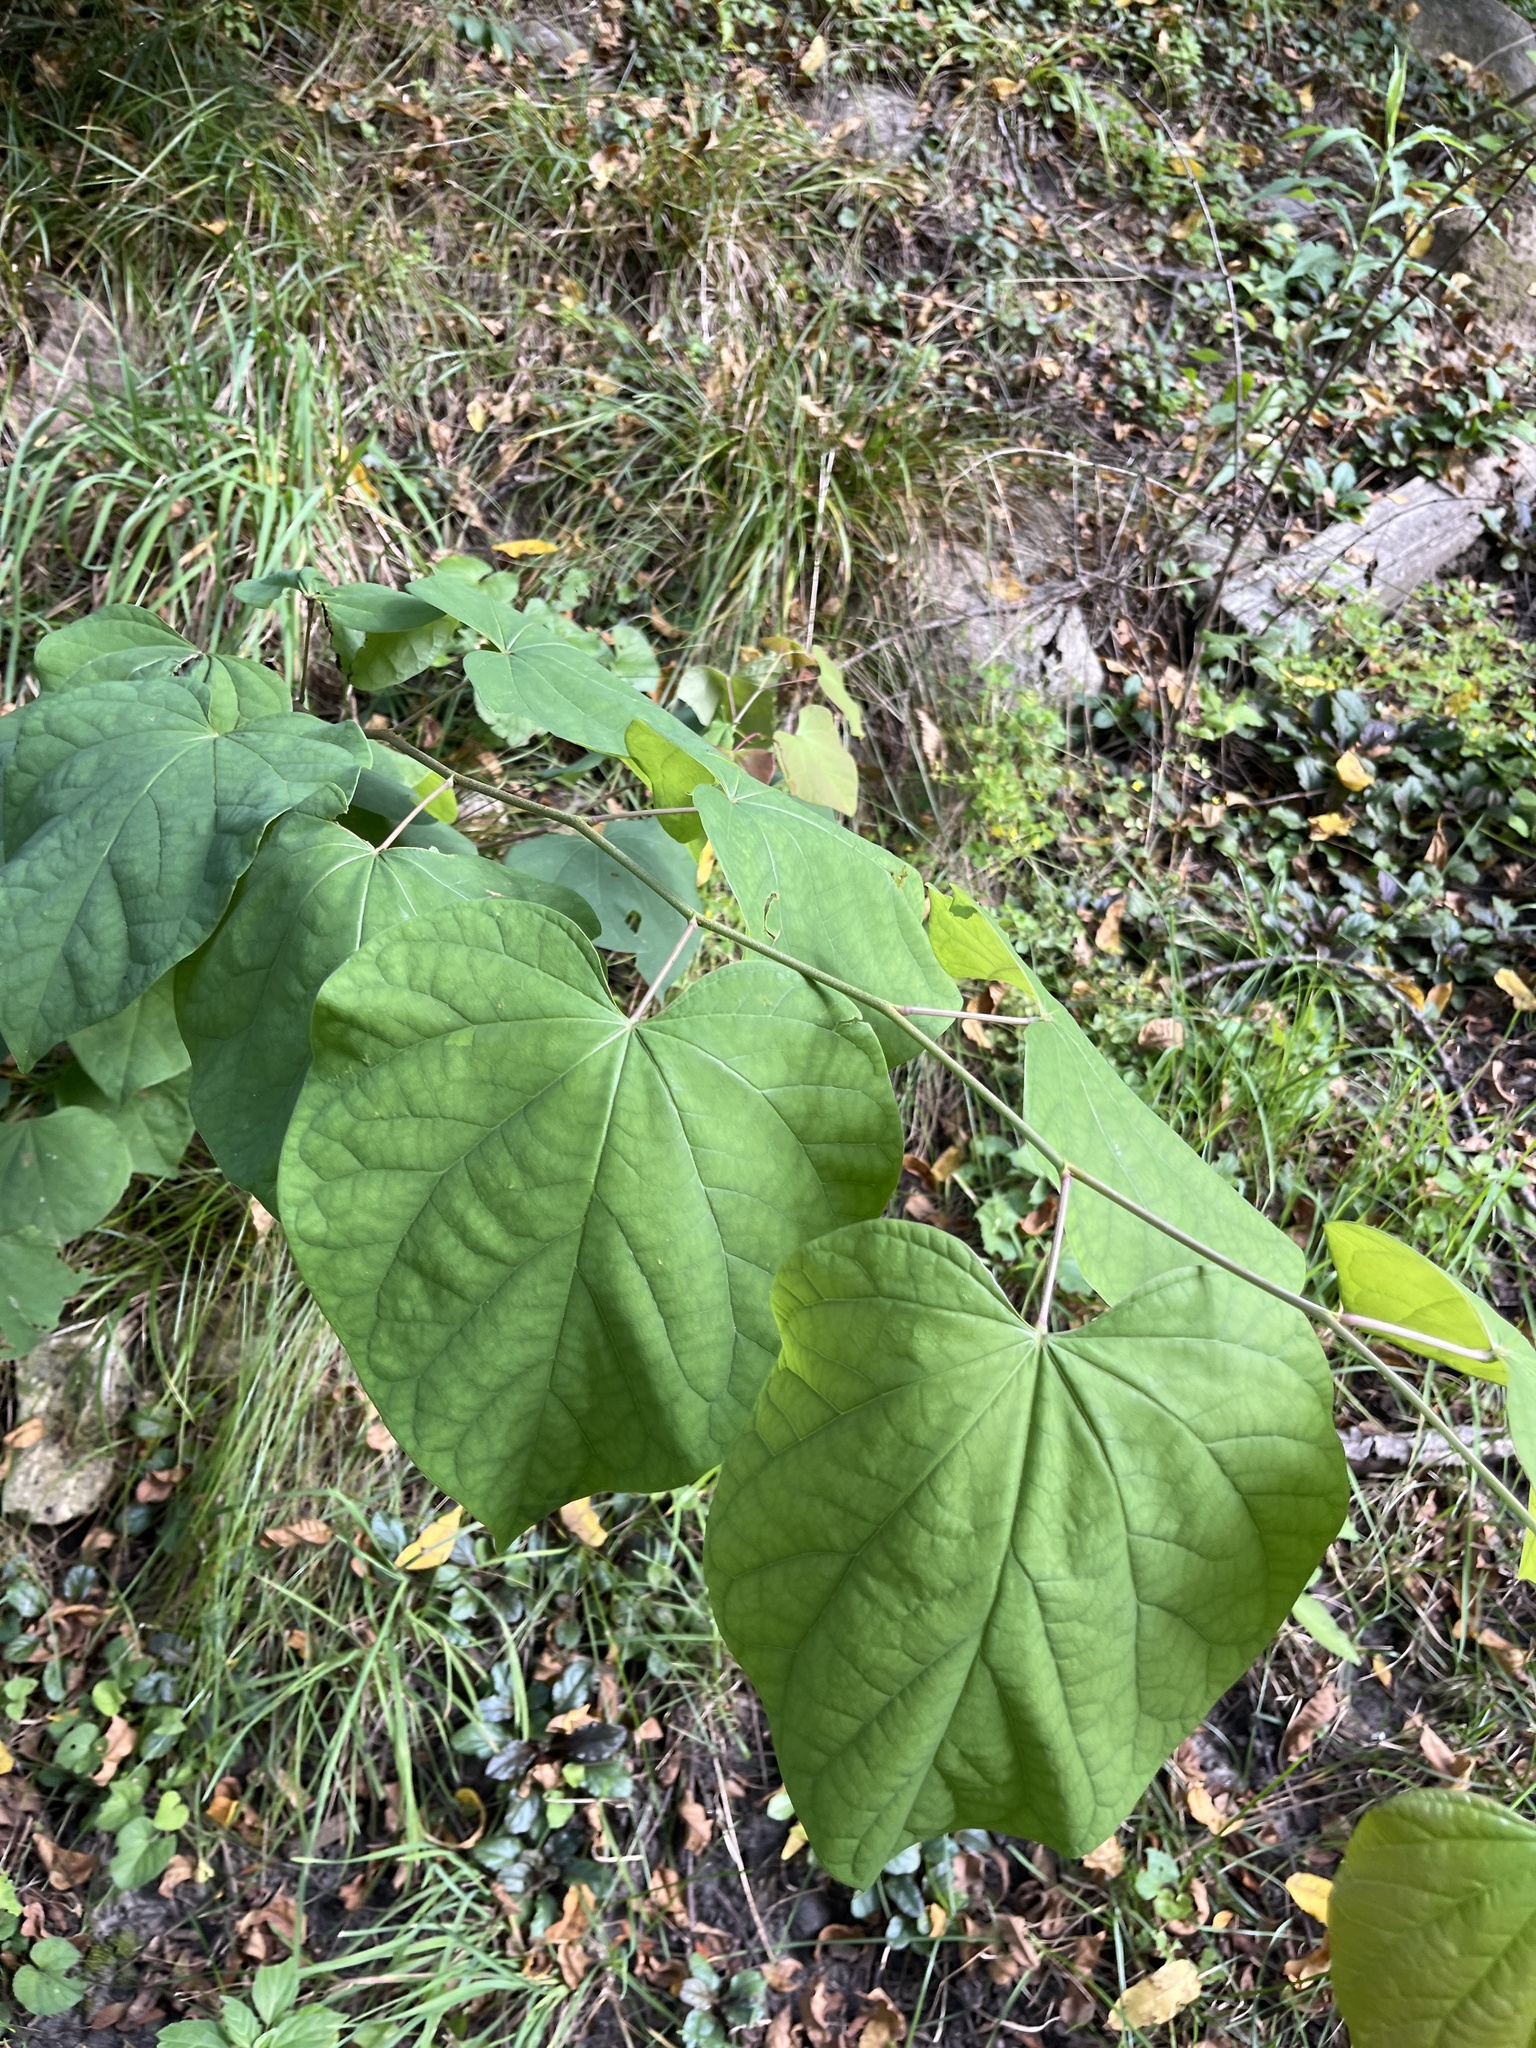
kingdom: Plantae
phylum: Tracheophyta
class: Magnoliopsida
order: Fabales
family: Fabaceae
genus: Cercis
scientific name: Cercis canadensis
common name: Eastern redbud
